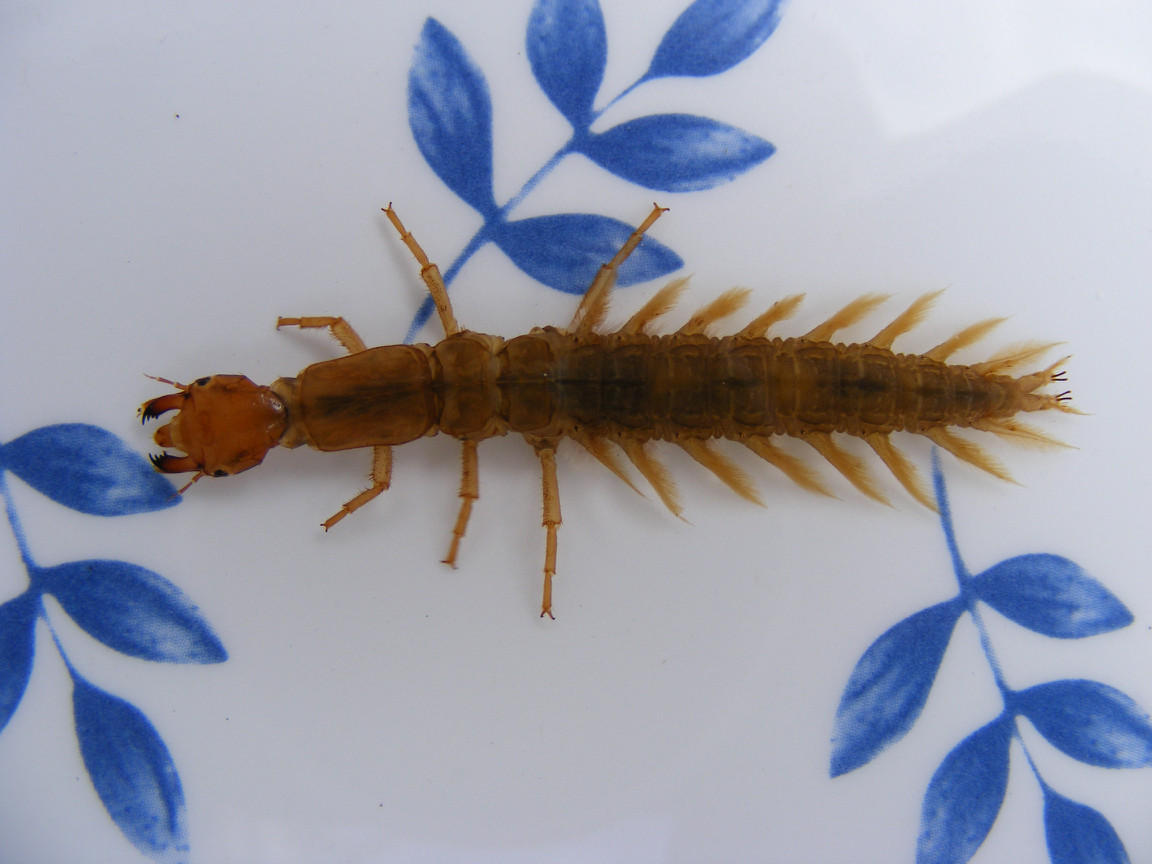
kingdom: Animalia
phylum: Arthropoda
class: Insecta
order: Megaloptera
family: Corydalidae
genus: Chloroniella
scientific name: Chloroniella peringueyi
